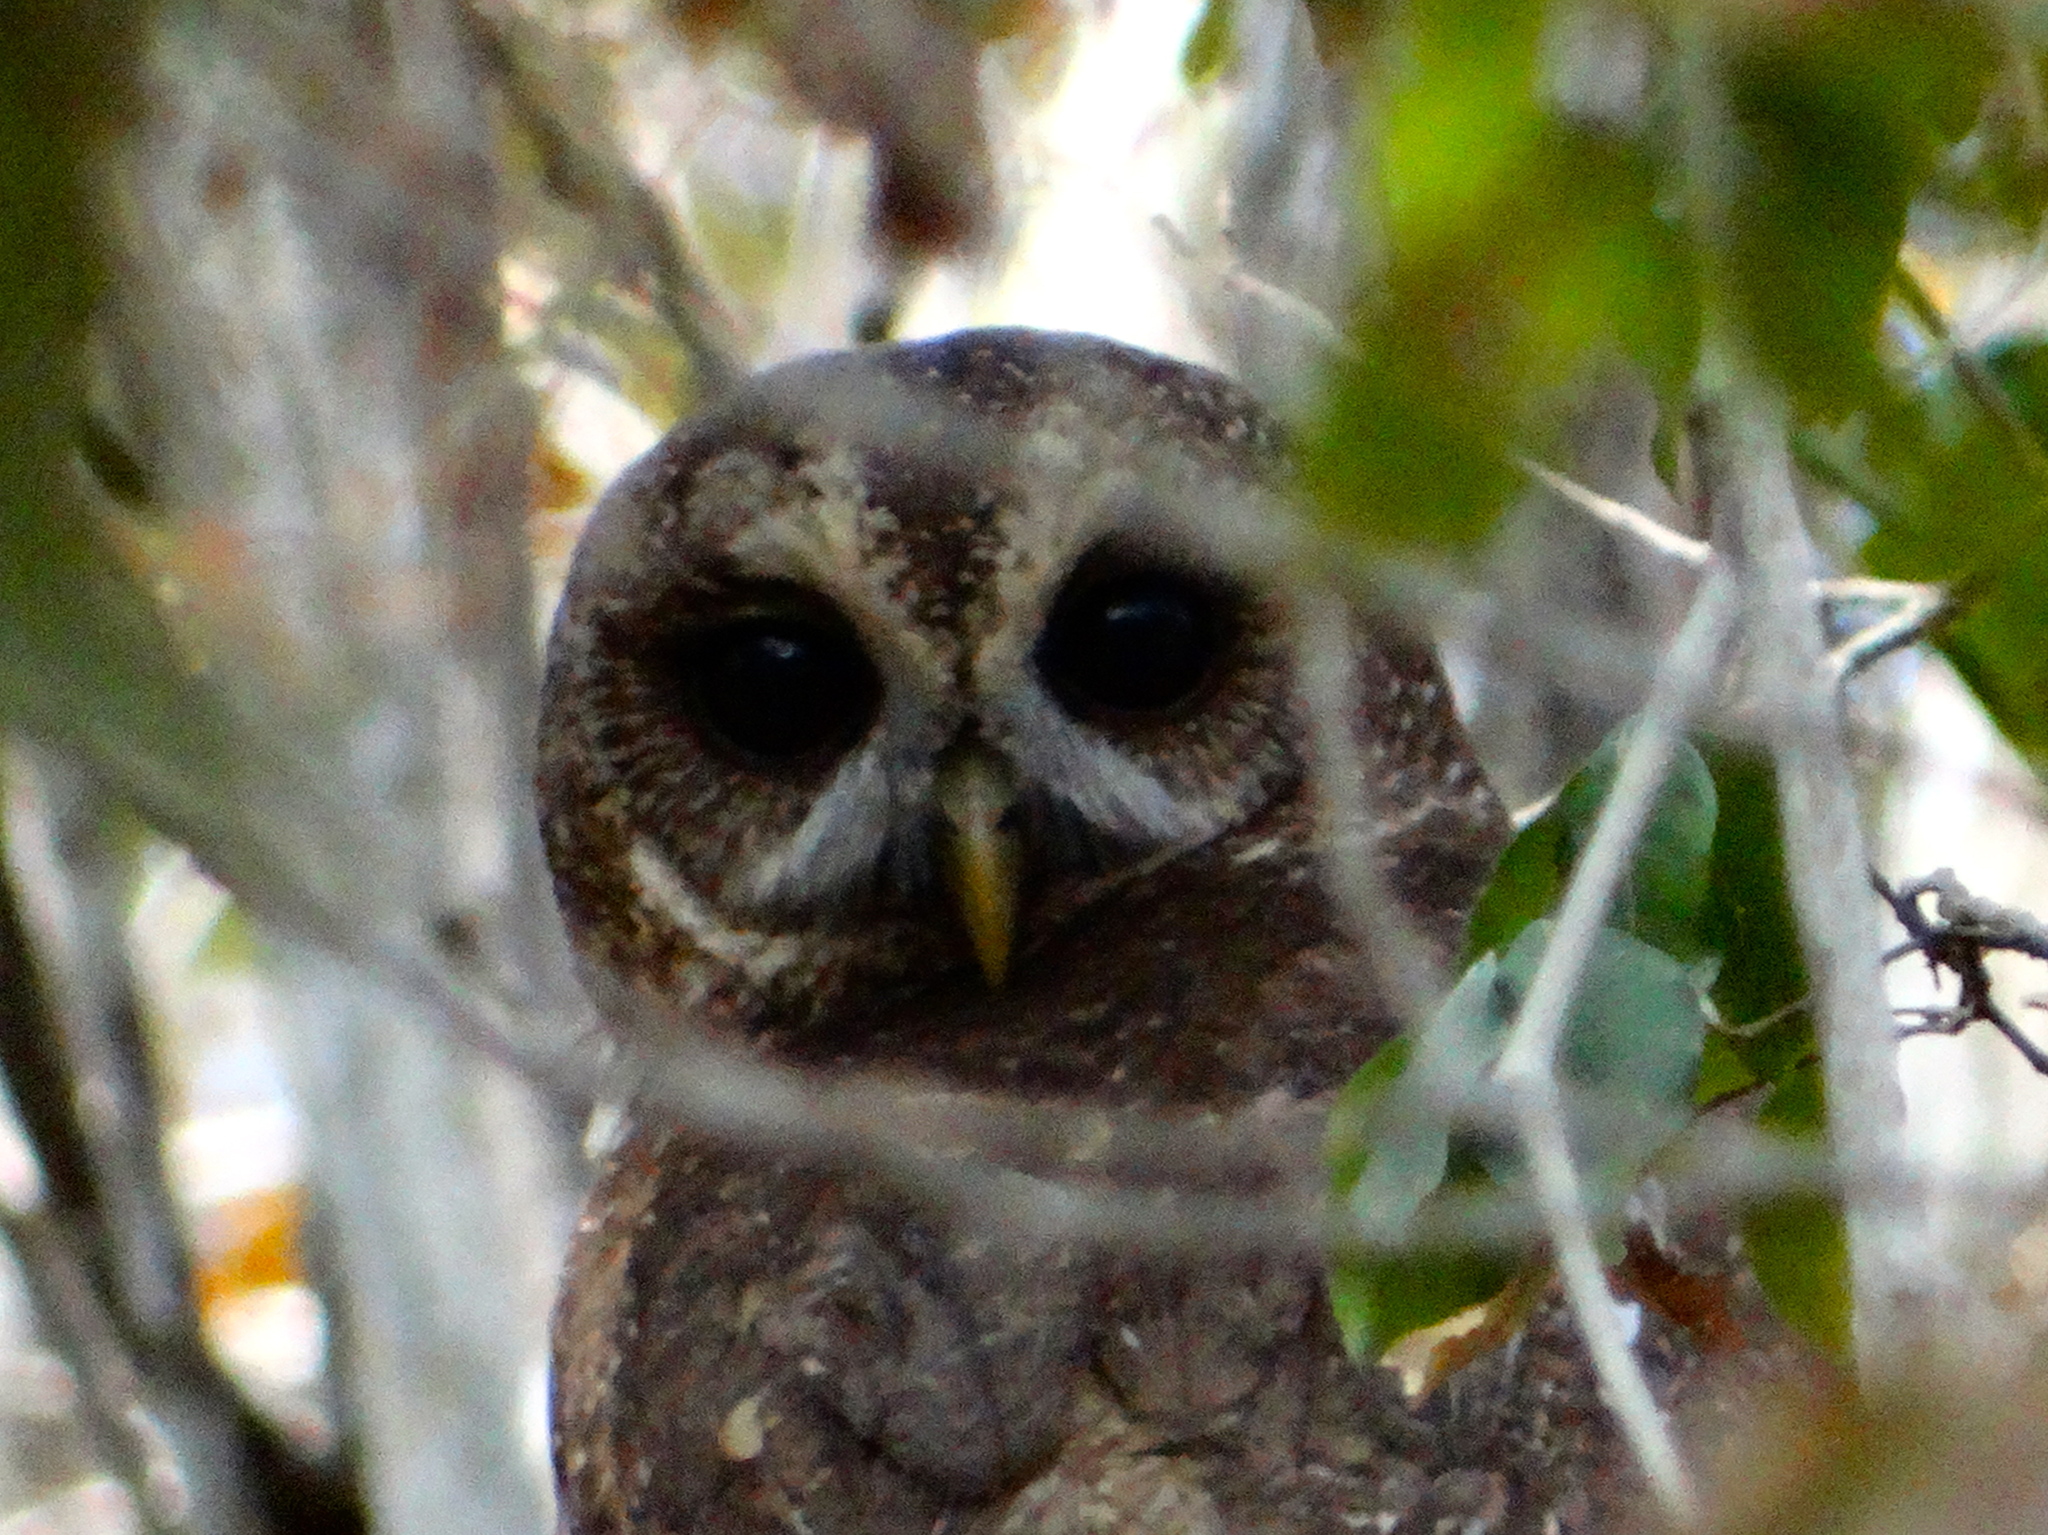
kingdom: Animalia
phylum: Chordata
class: Aves
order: Strigiformes
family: Strigidae
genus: Strix
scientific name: Strix virgata
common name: Mottled owl
